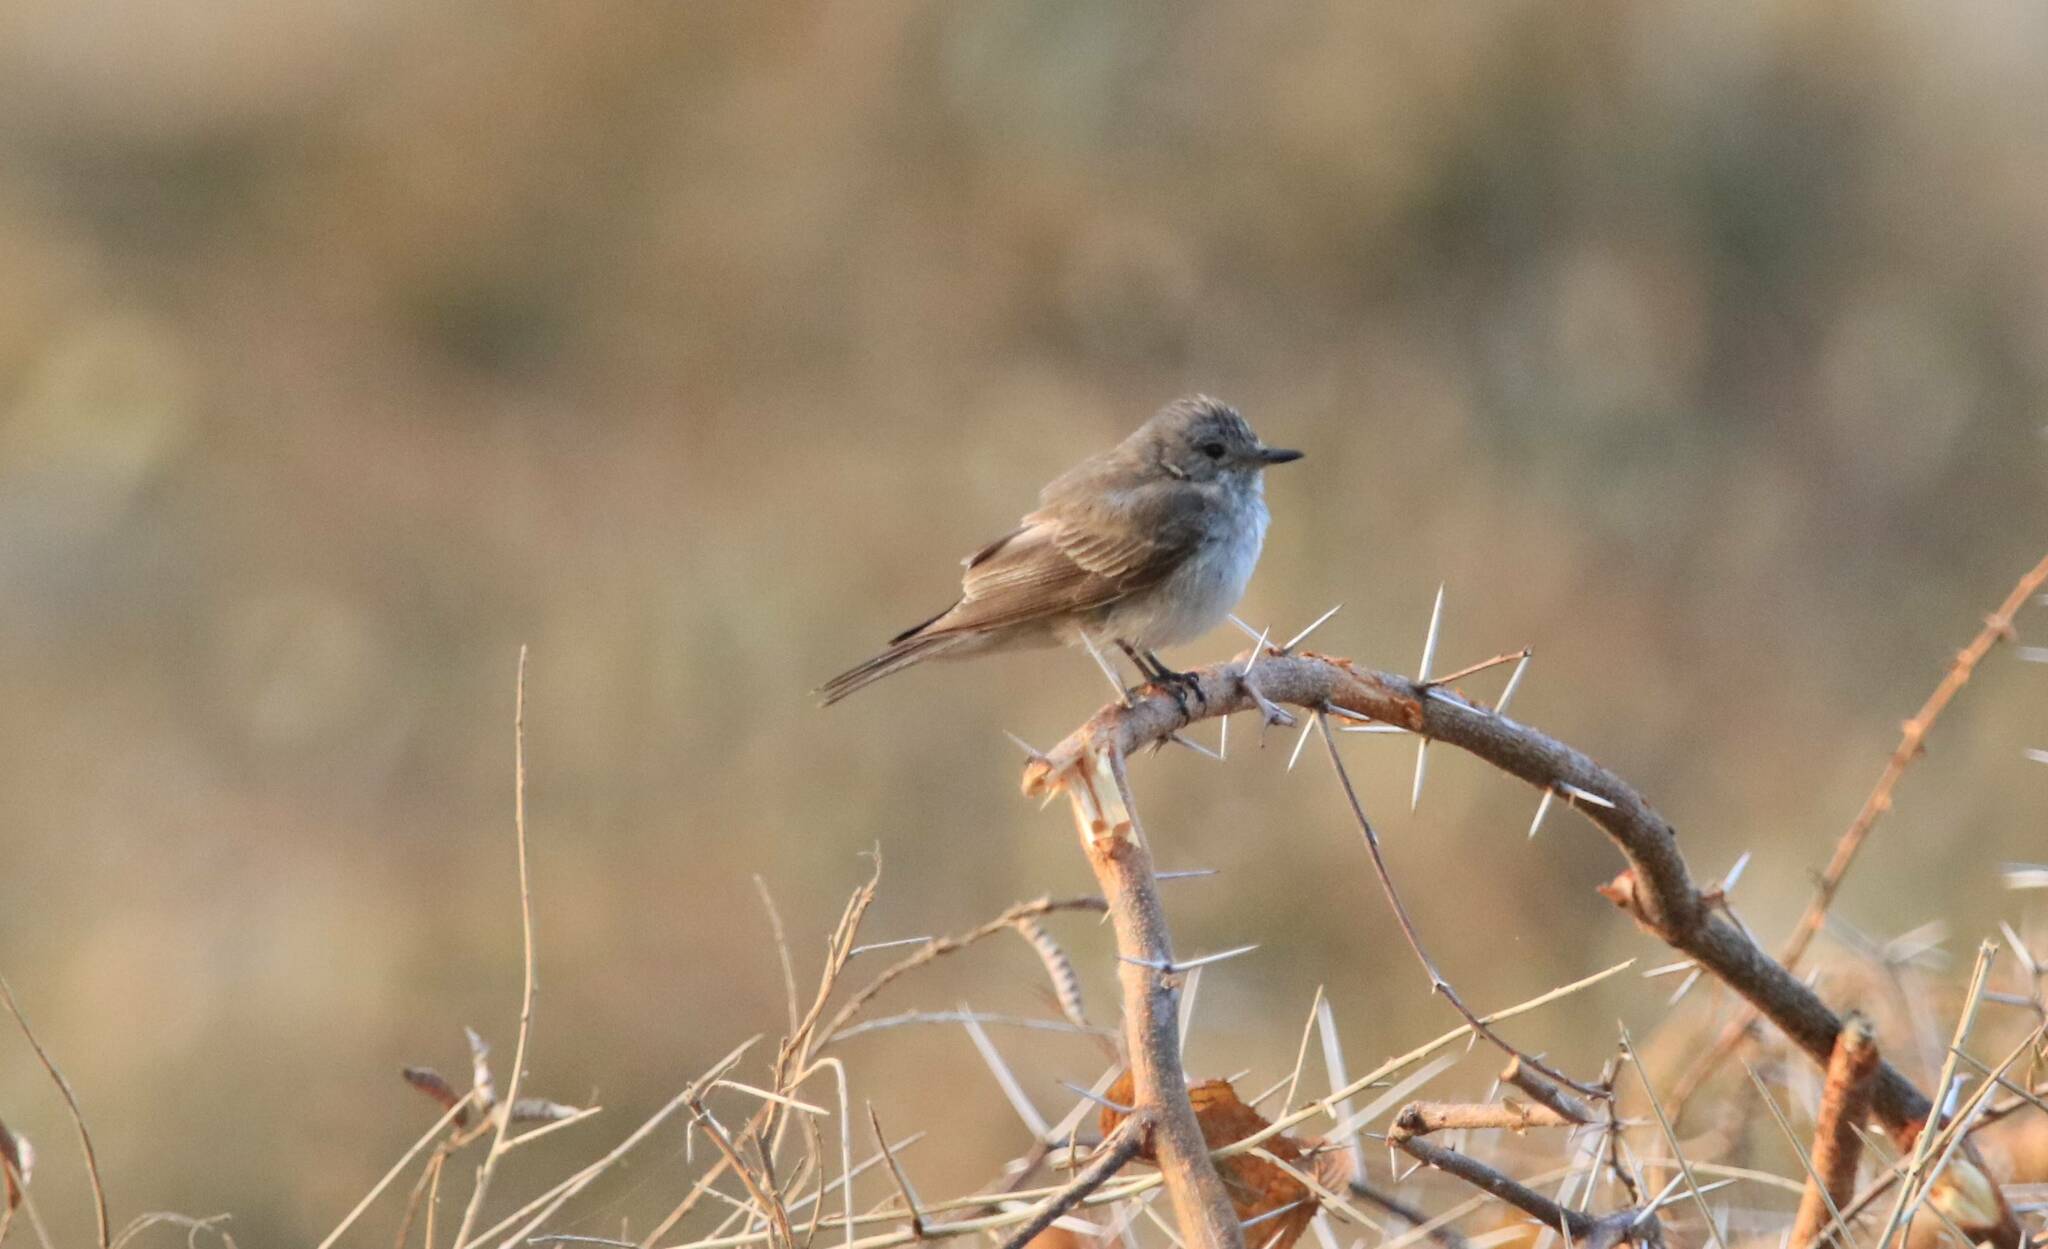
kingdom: Animalia
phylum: Chordata
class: Aves
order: Passeriformes
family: Muscicapidae
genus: Muscicapa
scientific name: Muscicapa striata
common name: Spotted flycatcher
